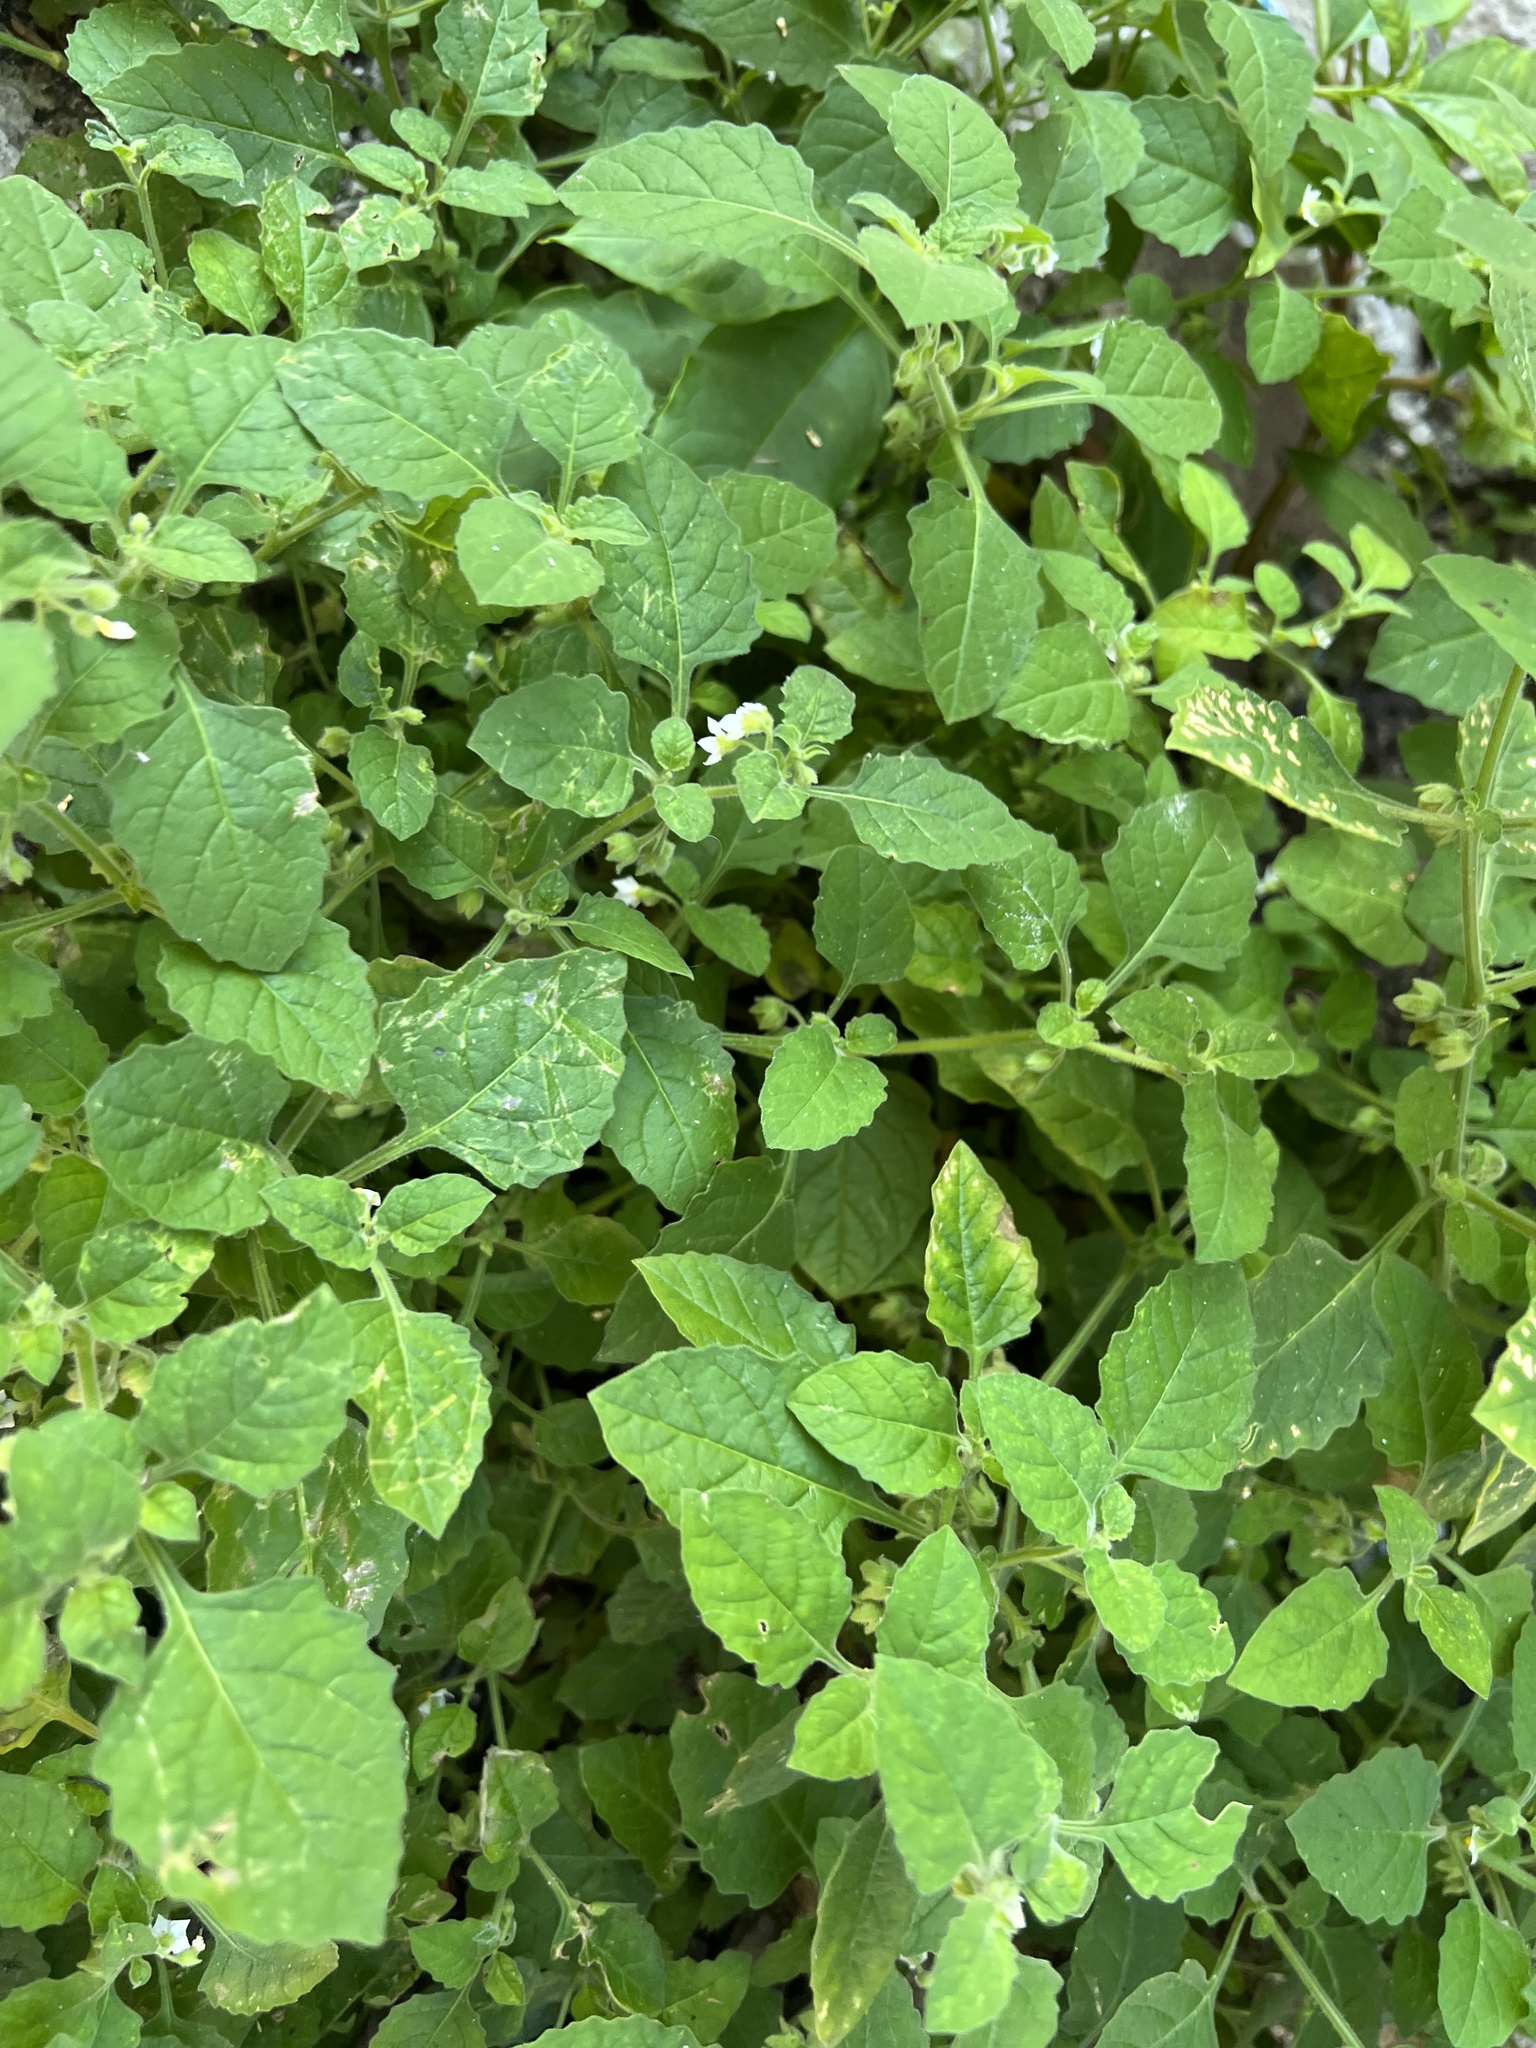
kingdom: Plantae
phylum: Tracheophyta
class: Magnoliopsida
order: Solanales
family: Solanaceae
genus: Solanum
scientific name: Solanum sarrachoides
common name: Leafy-fruited nightshade
